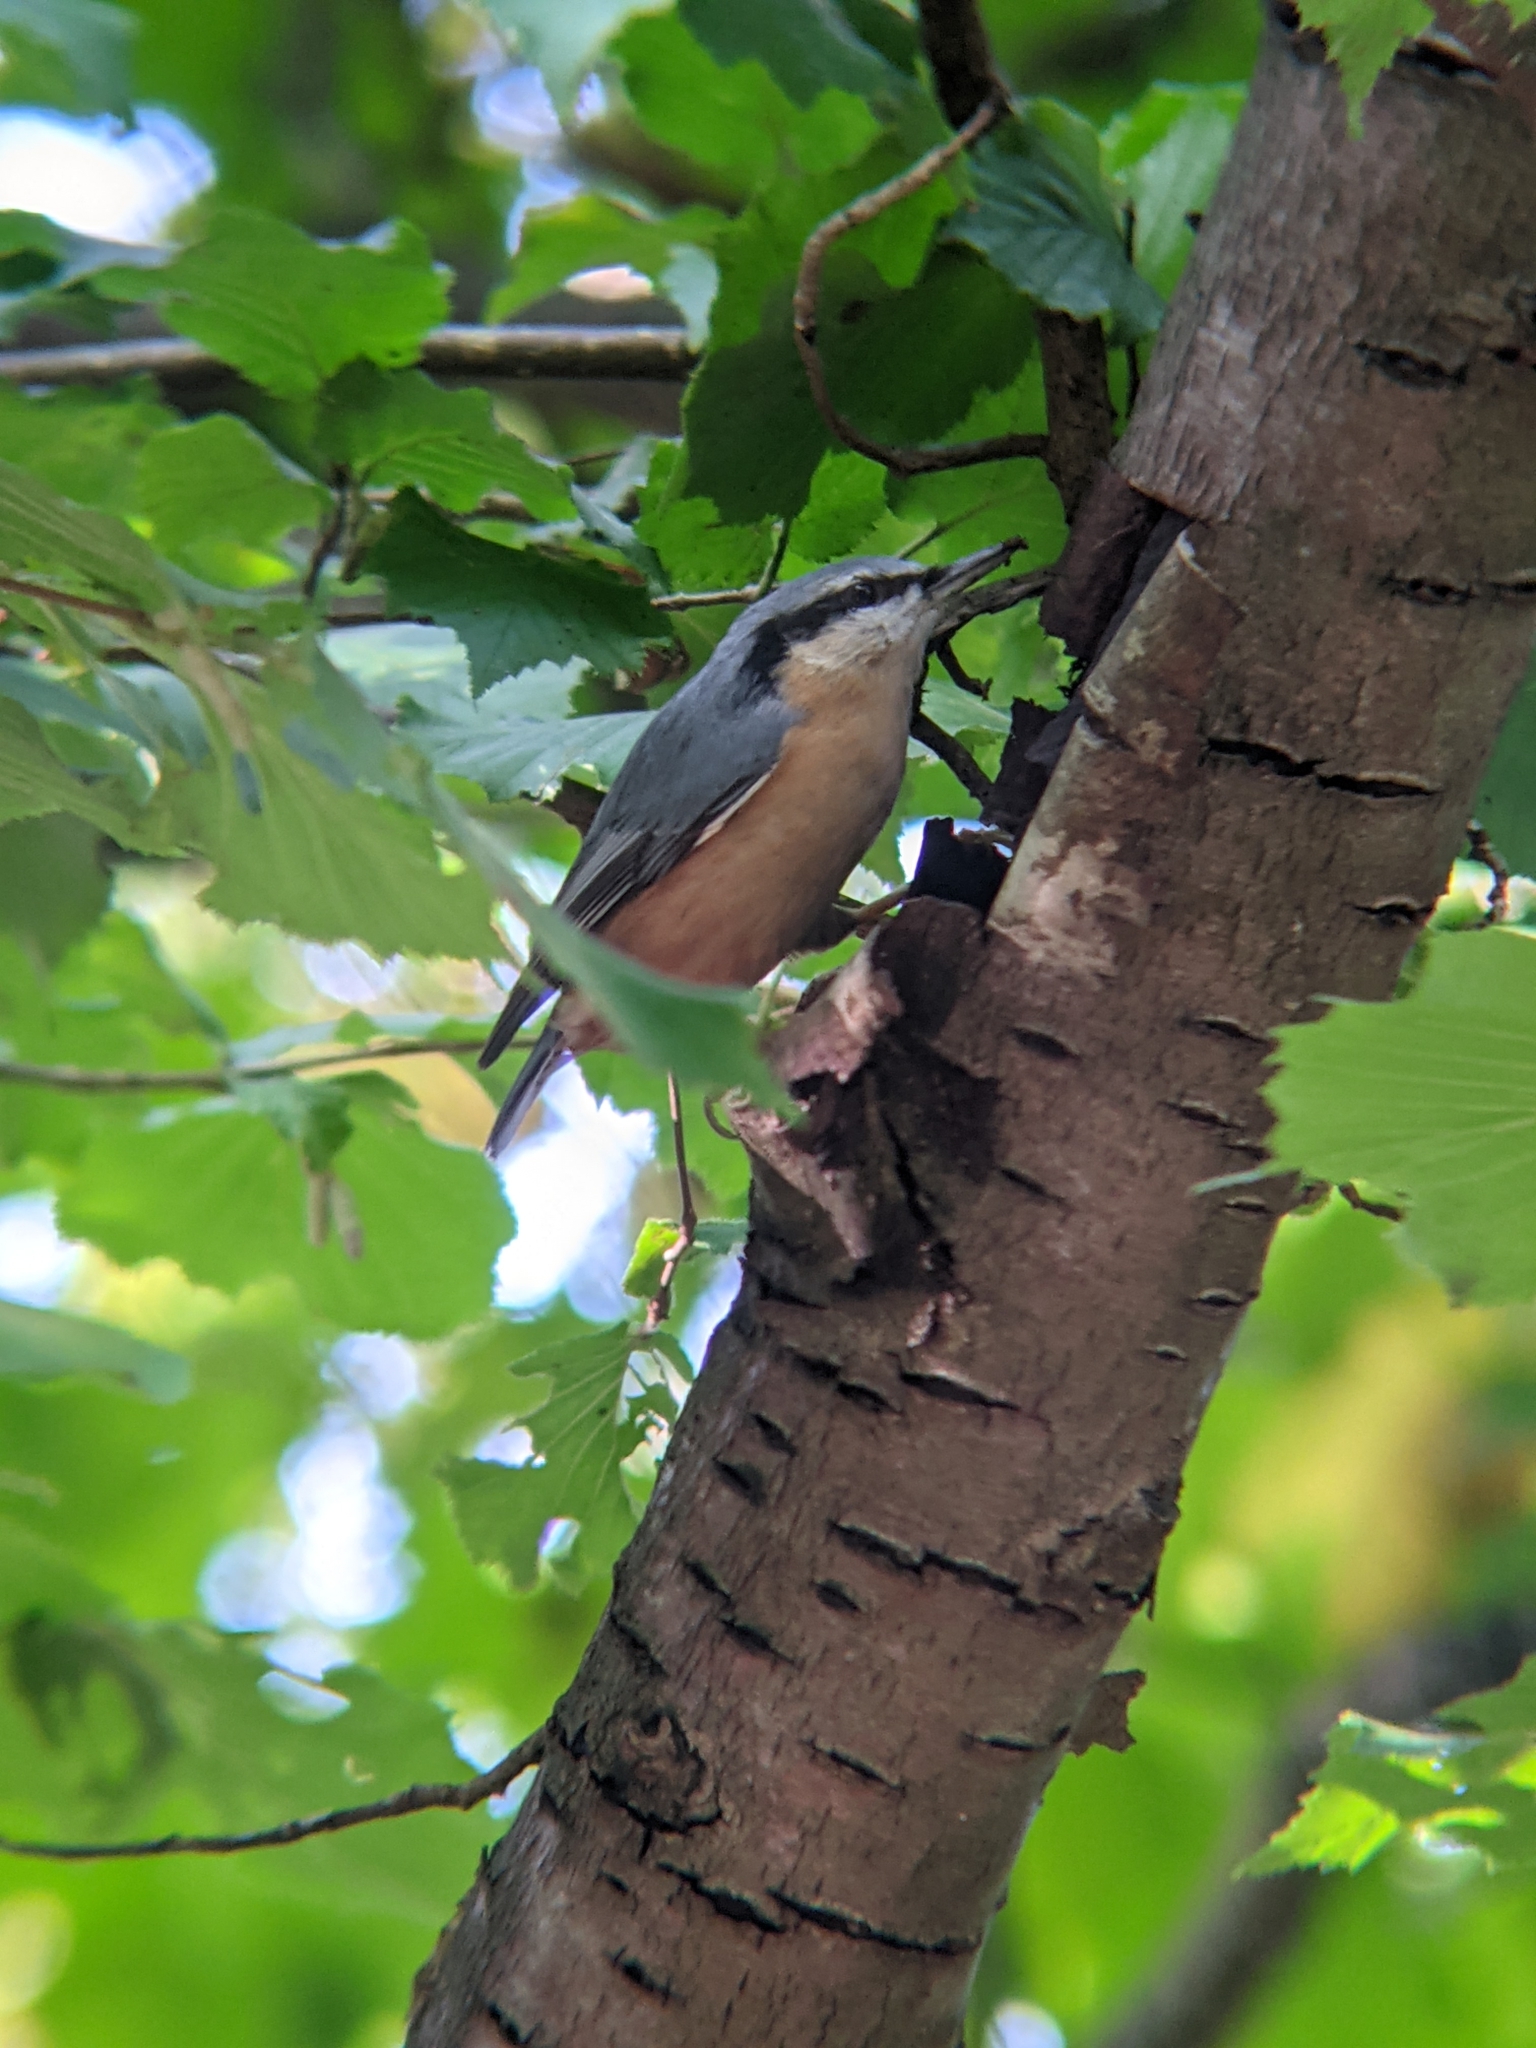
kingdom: Animalia
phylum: Chordata
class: Aves
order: Passeriformes
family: Sittidae
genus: Sitta
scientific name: Sitta europaea
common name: Eurasian nuthatch
